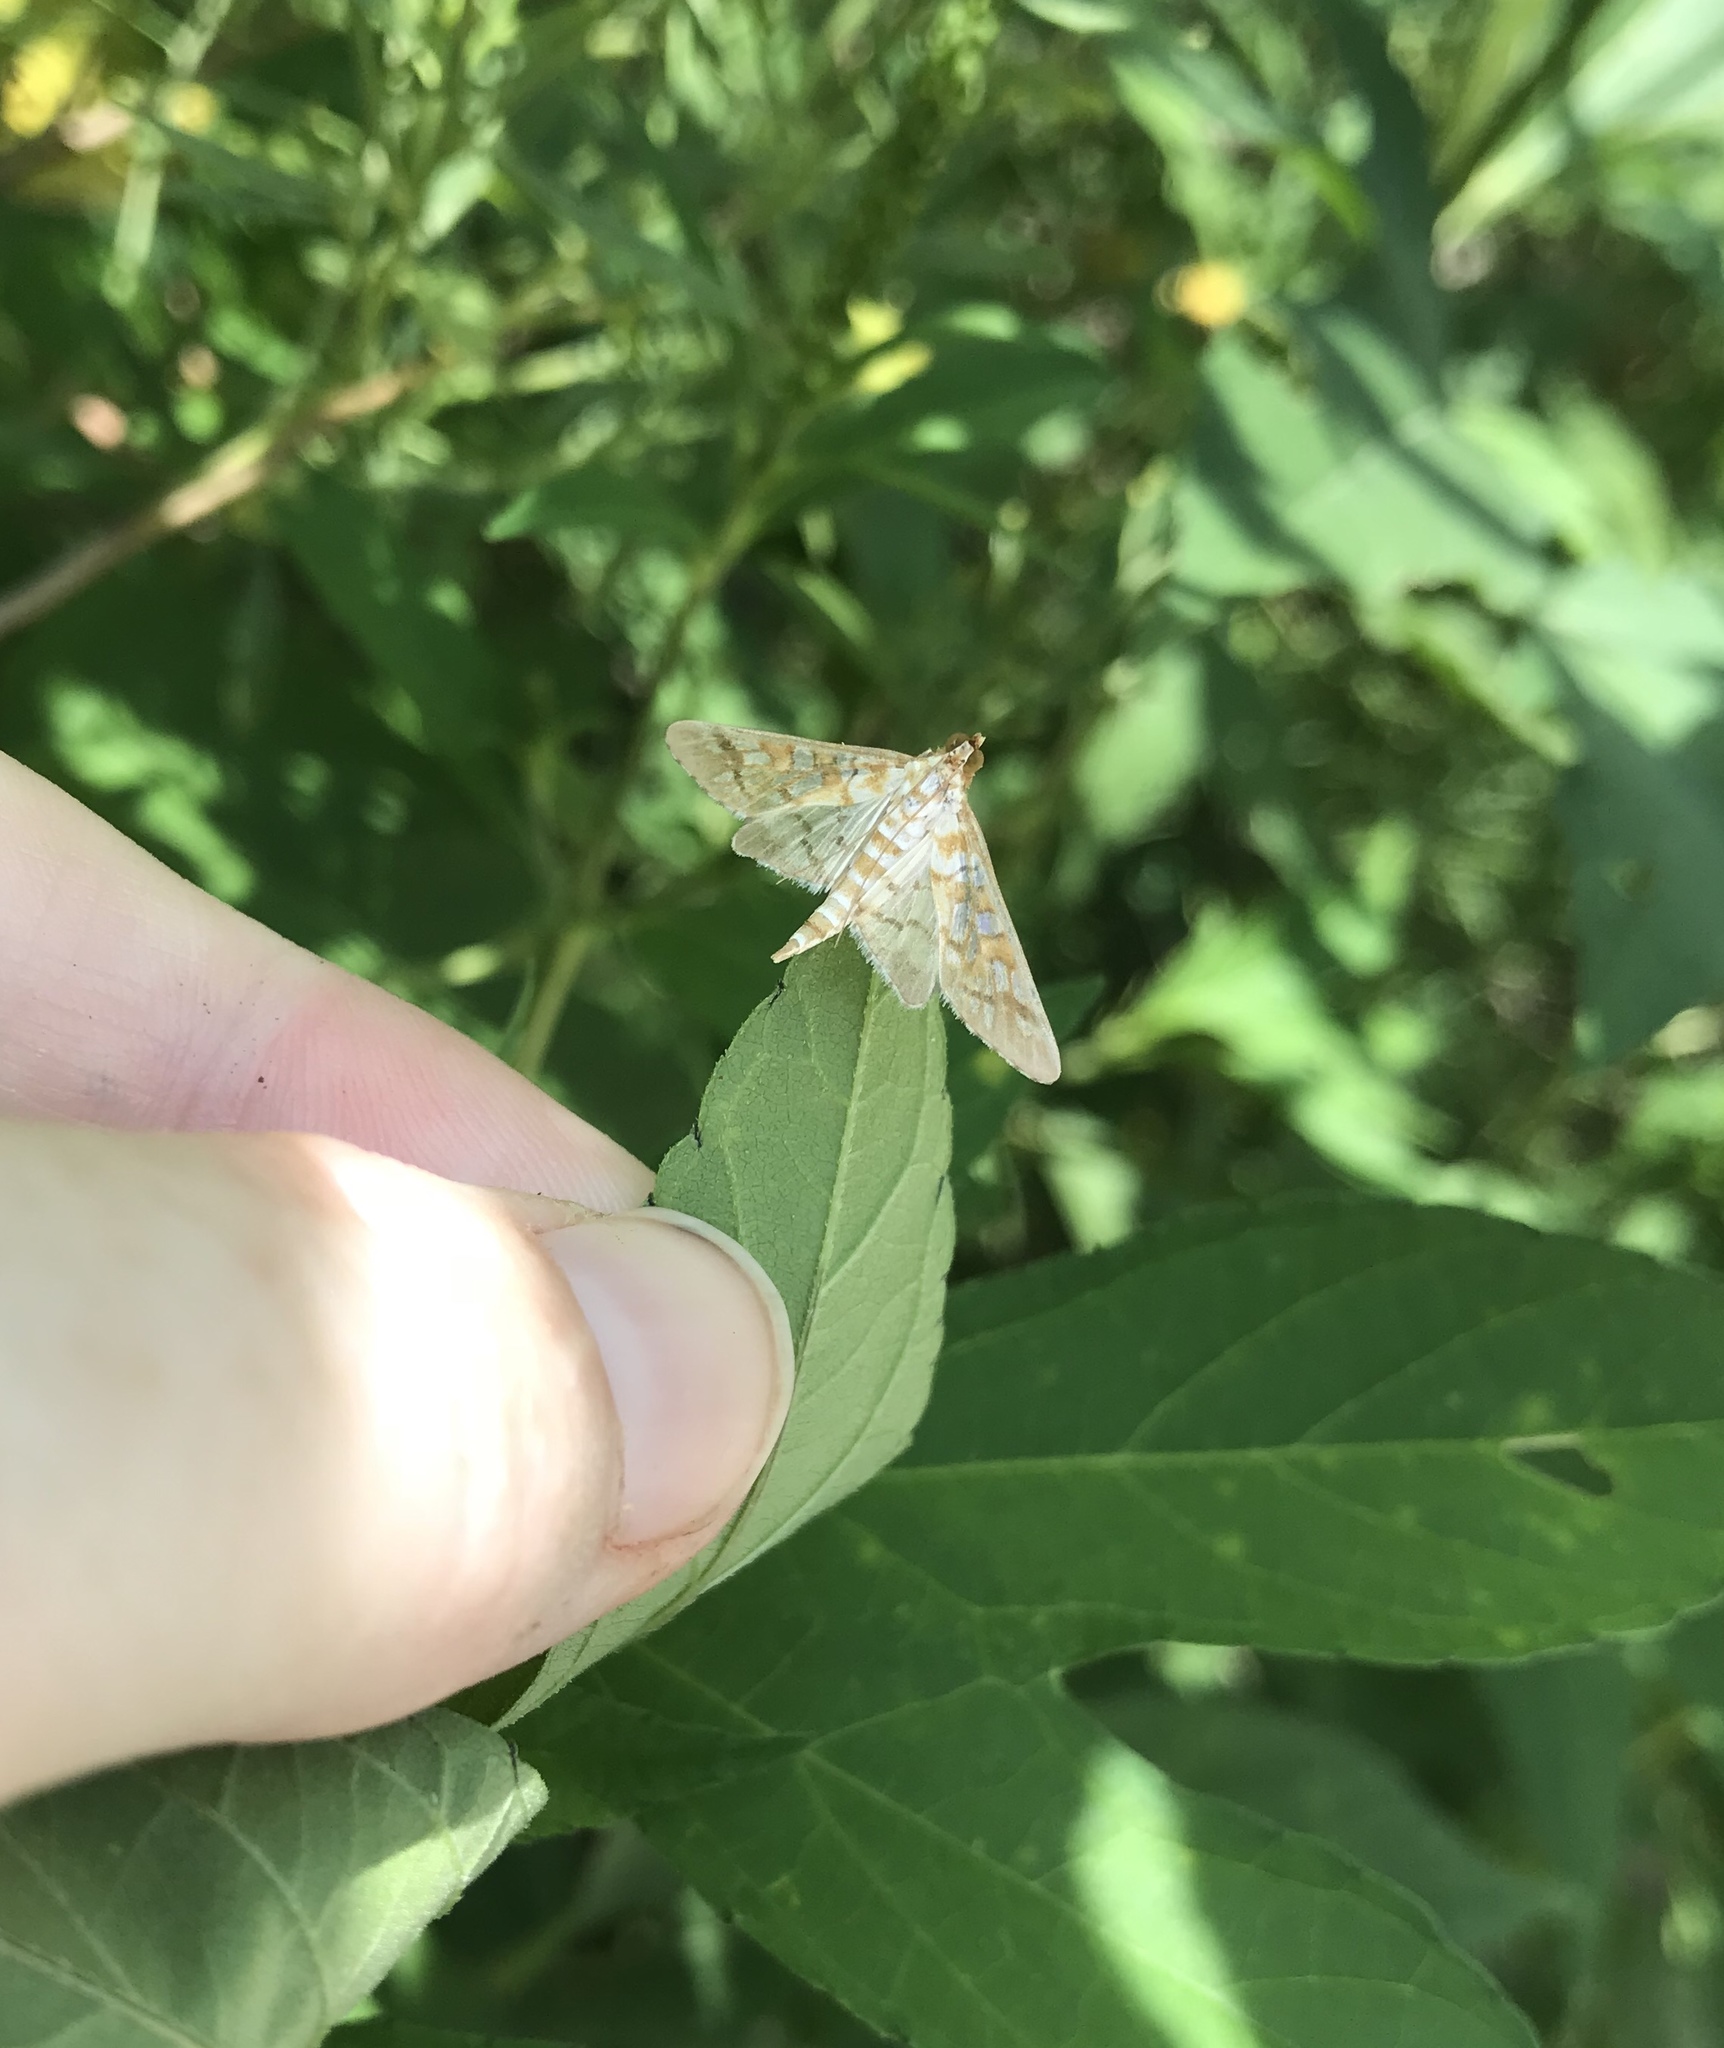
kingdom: Animalia
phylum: Arthropoda
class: Insecta
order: Lepidoptera
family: Crambidae
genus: Epipagis
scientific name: Epipagis fenestralis
